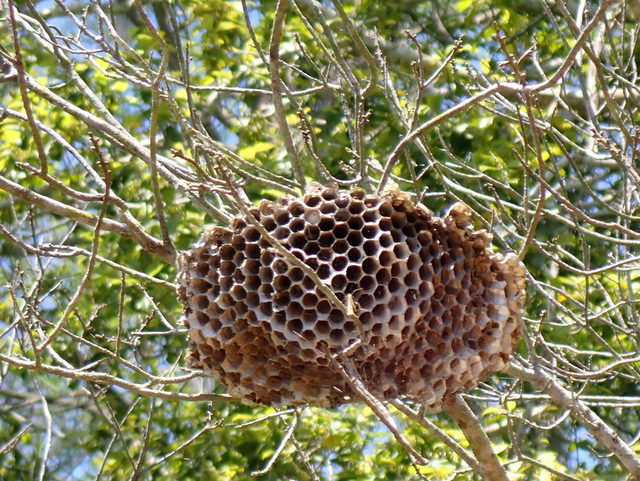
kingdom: Animalia
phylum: Arthropoda
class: Insecta
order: Hymenoptera
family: Eumenidae
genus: Polistes
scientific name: Polistes
